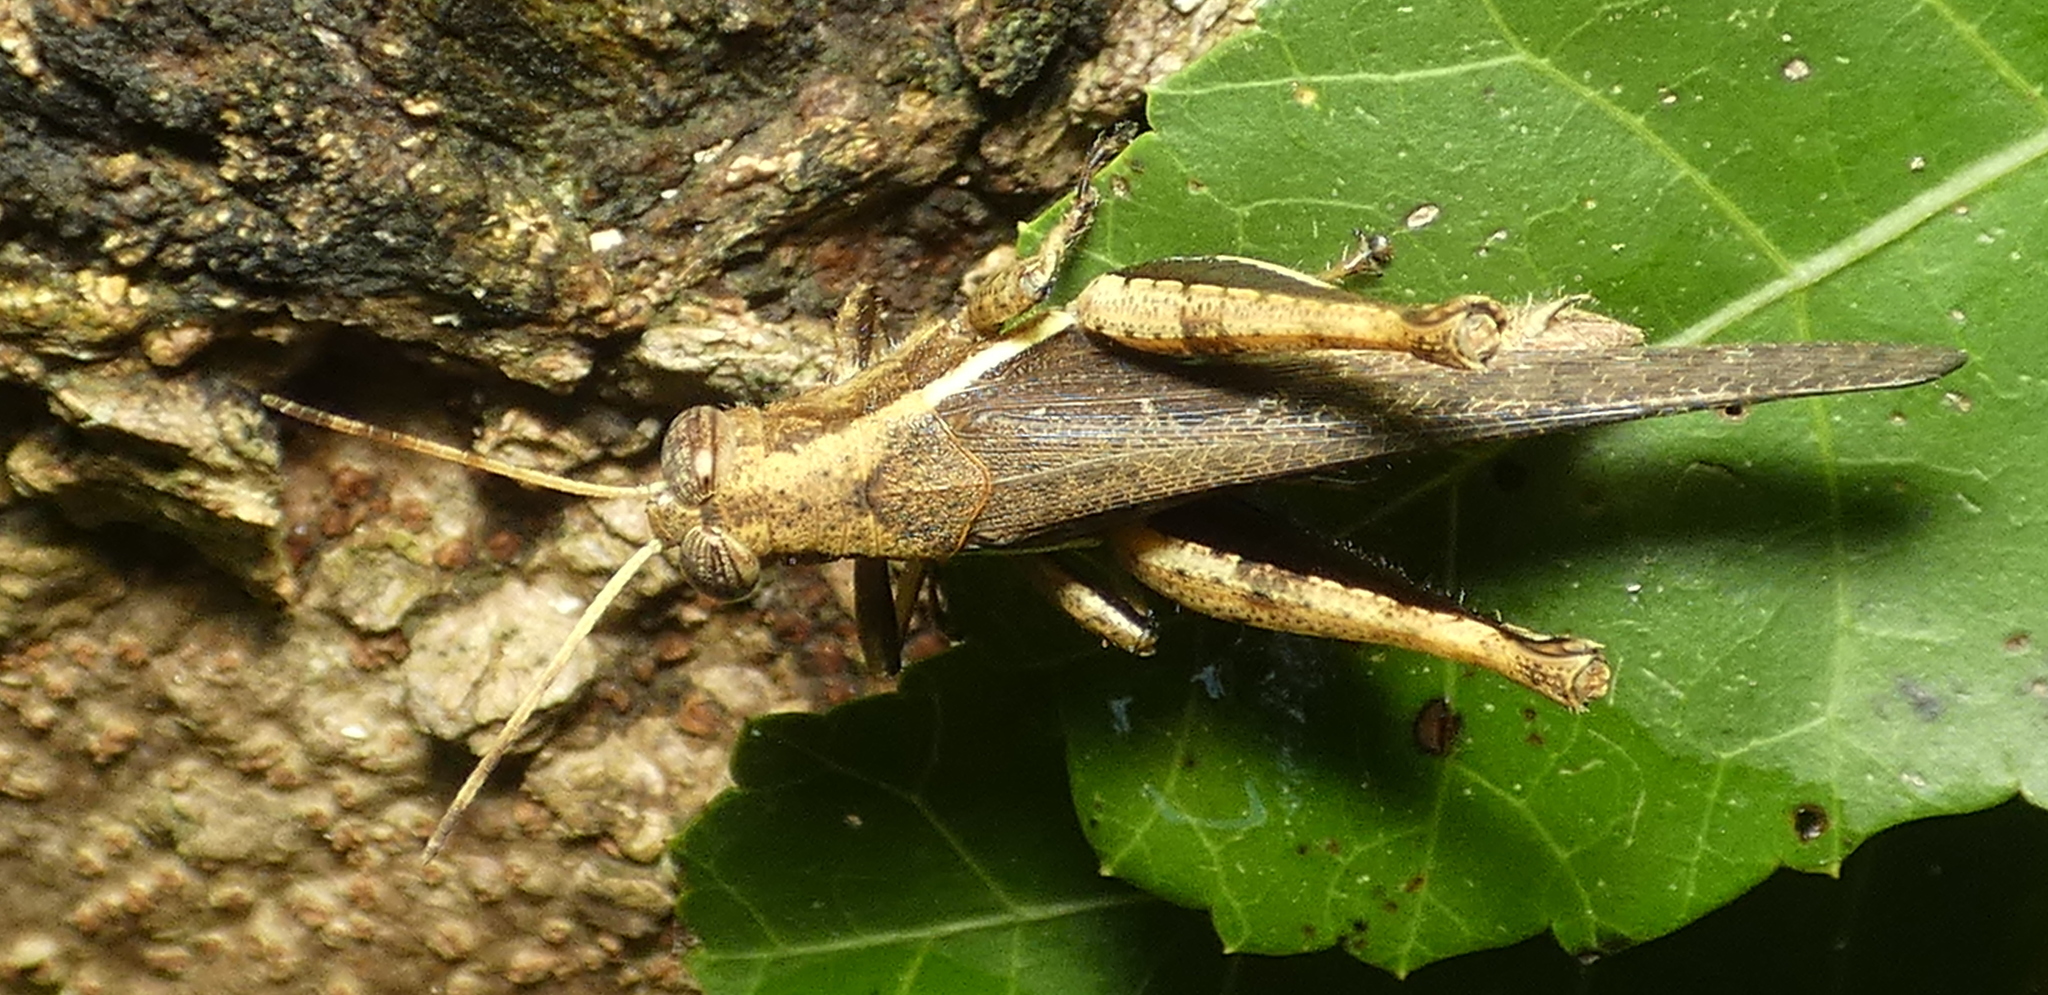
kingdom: Animalia
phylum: Arthropoda
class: Insecta
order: Orthoptera
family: Acrididae
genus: Abracris
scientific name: Abracris flavolineata
